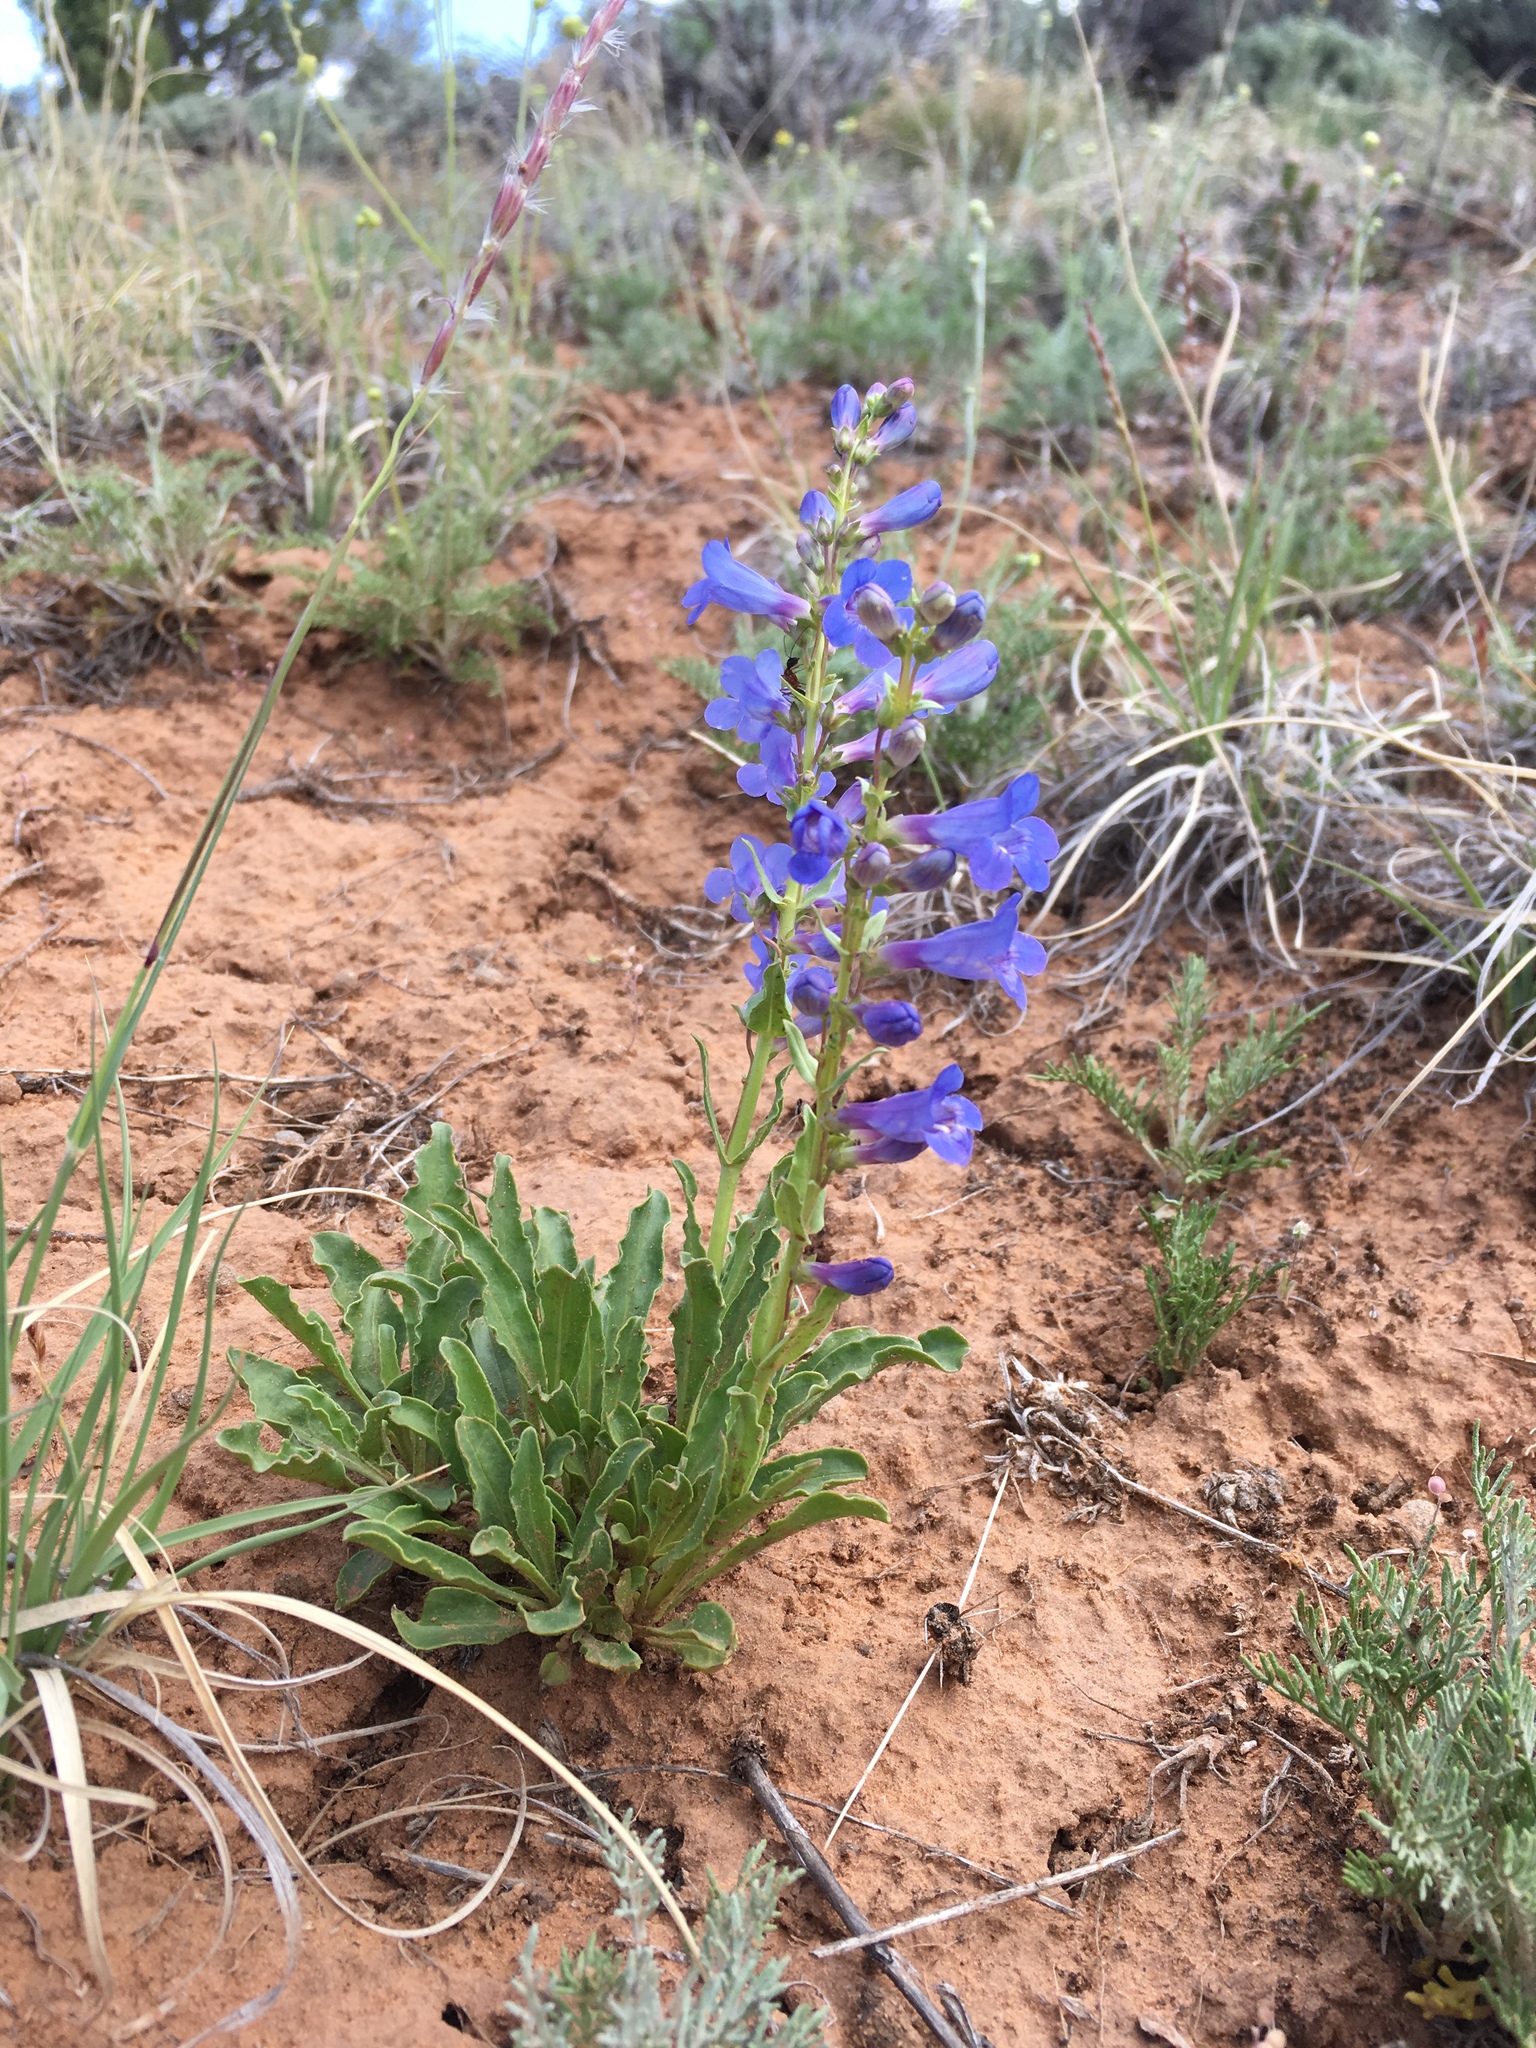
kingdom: Plantae
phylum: Tracheophyta
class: Magnoliopsida
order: Lamiales
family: Plantaginaceae
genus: Penstemon
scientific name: Penstemon cyanocaulis
